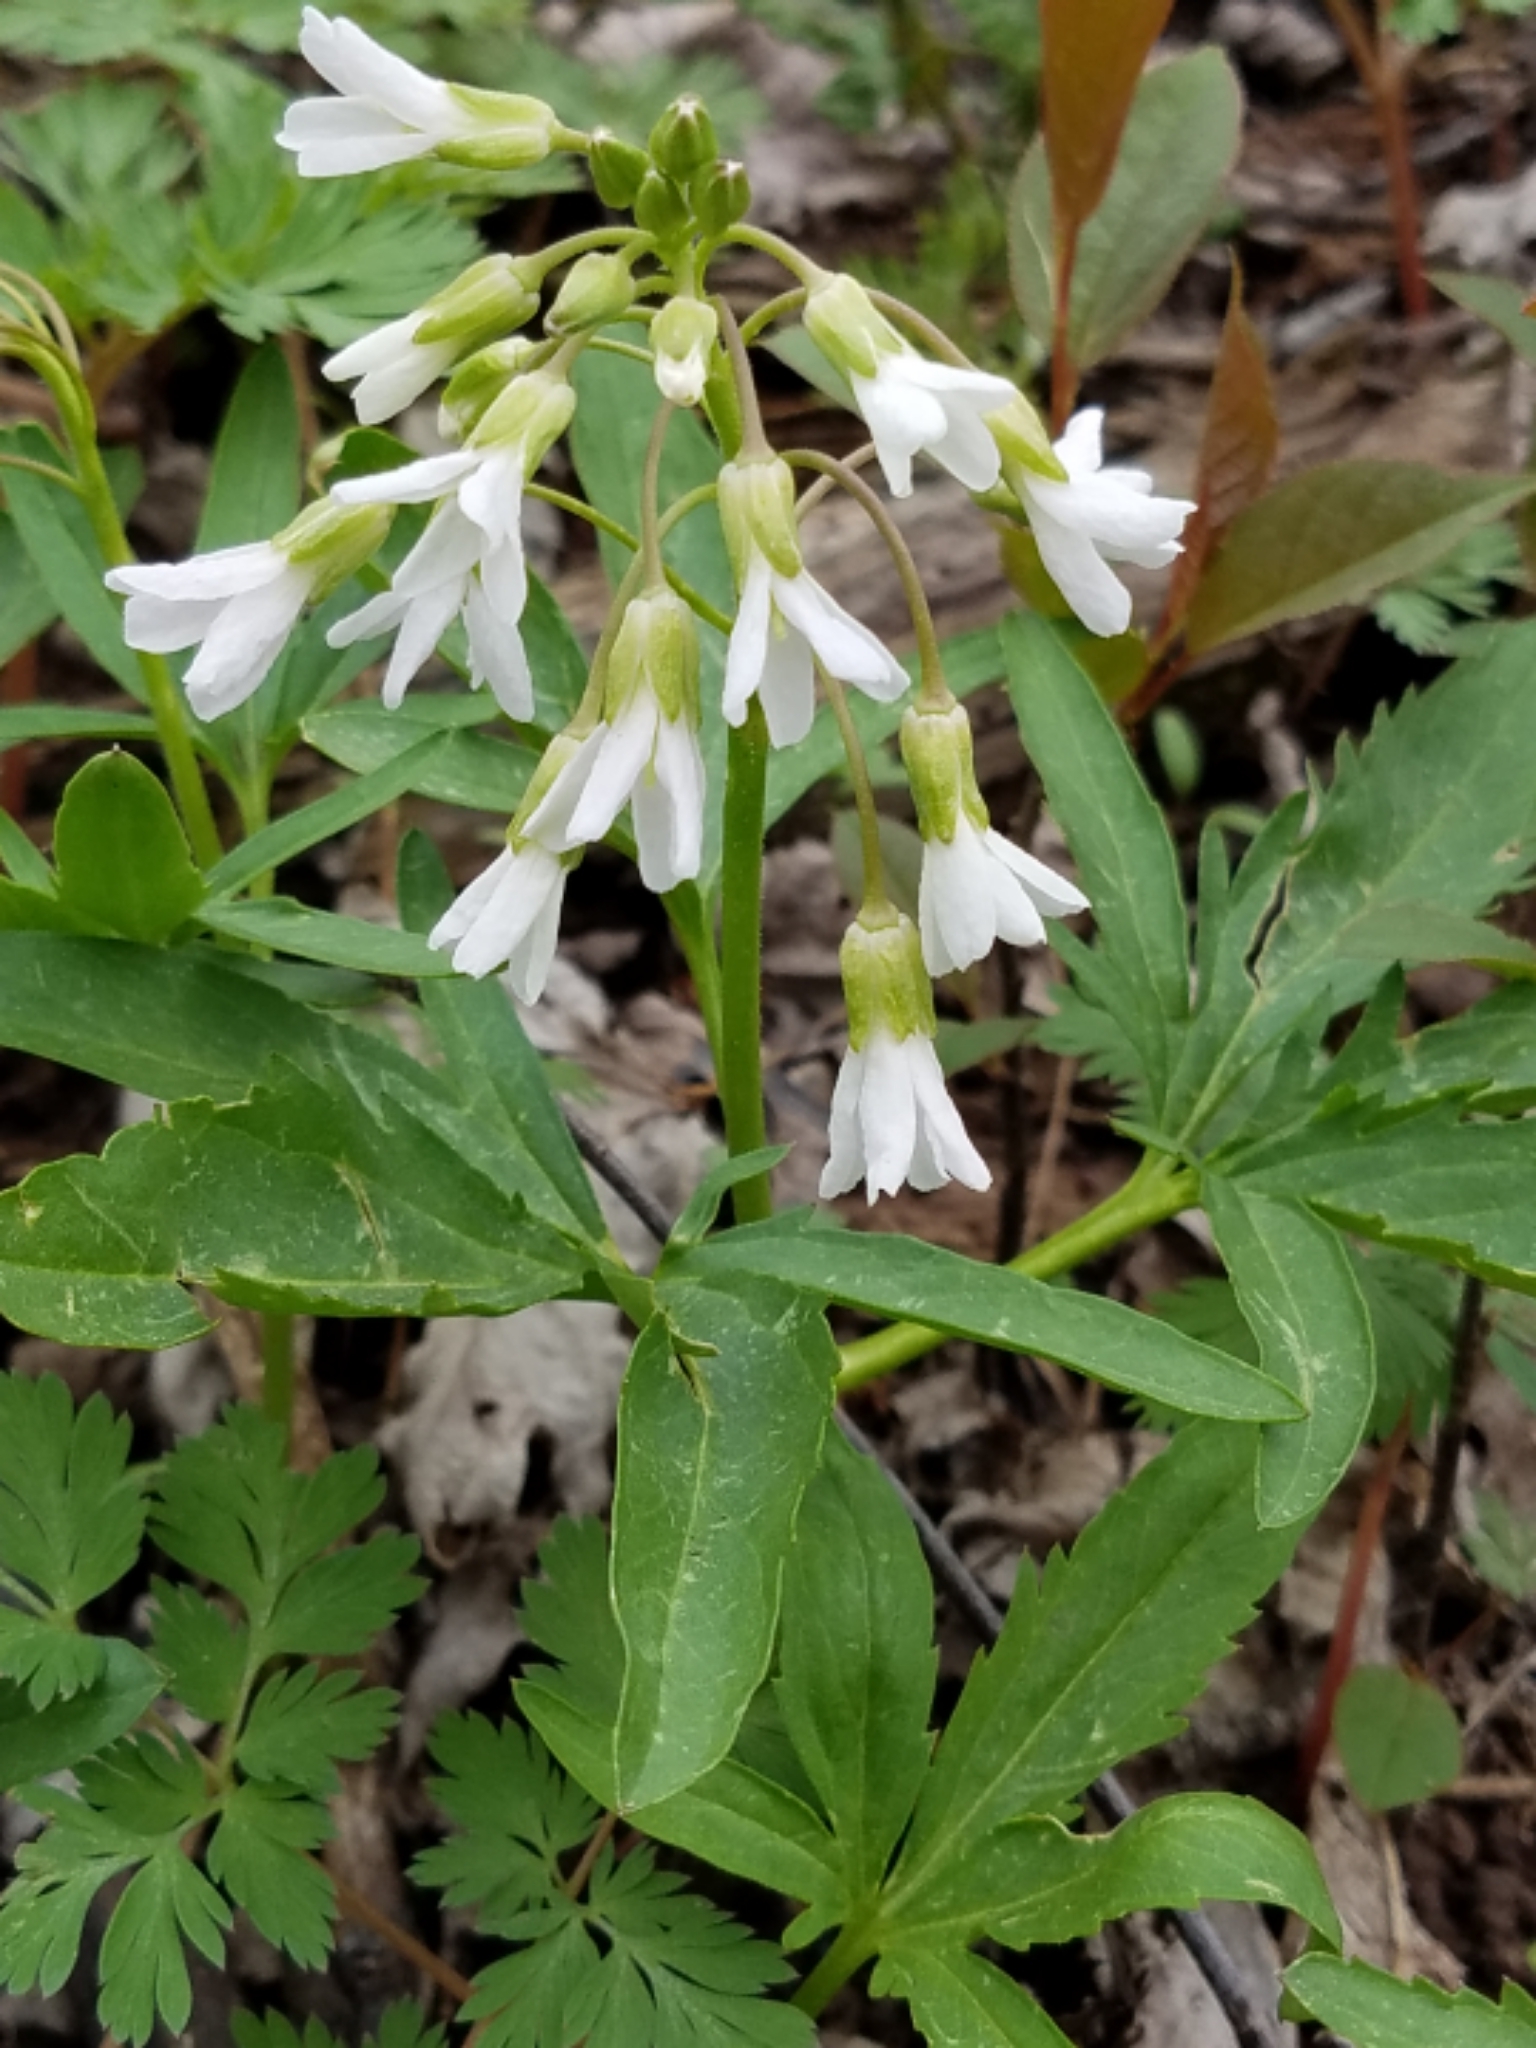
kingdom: Plantae
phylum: Tracheophyta
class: Magnoliopsida
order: Brassicales
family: Brassicaceae
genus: Cardamine
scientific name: Cardamine concatenata
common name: Cut-leaf toothcup
